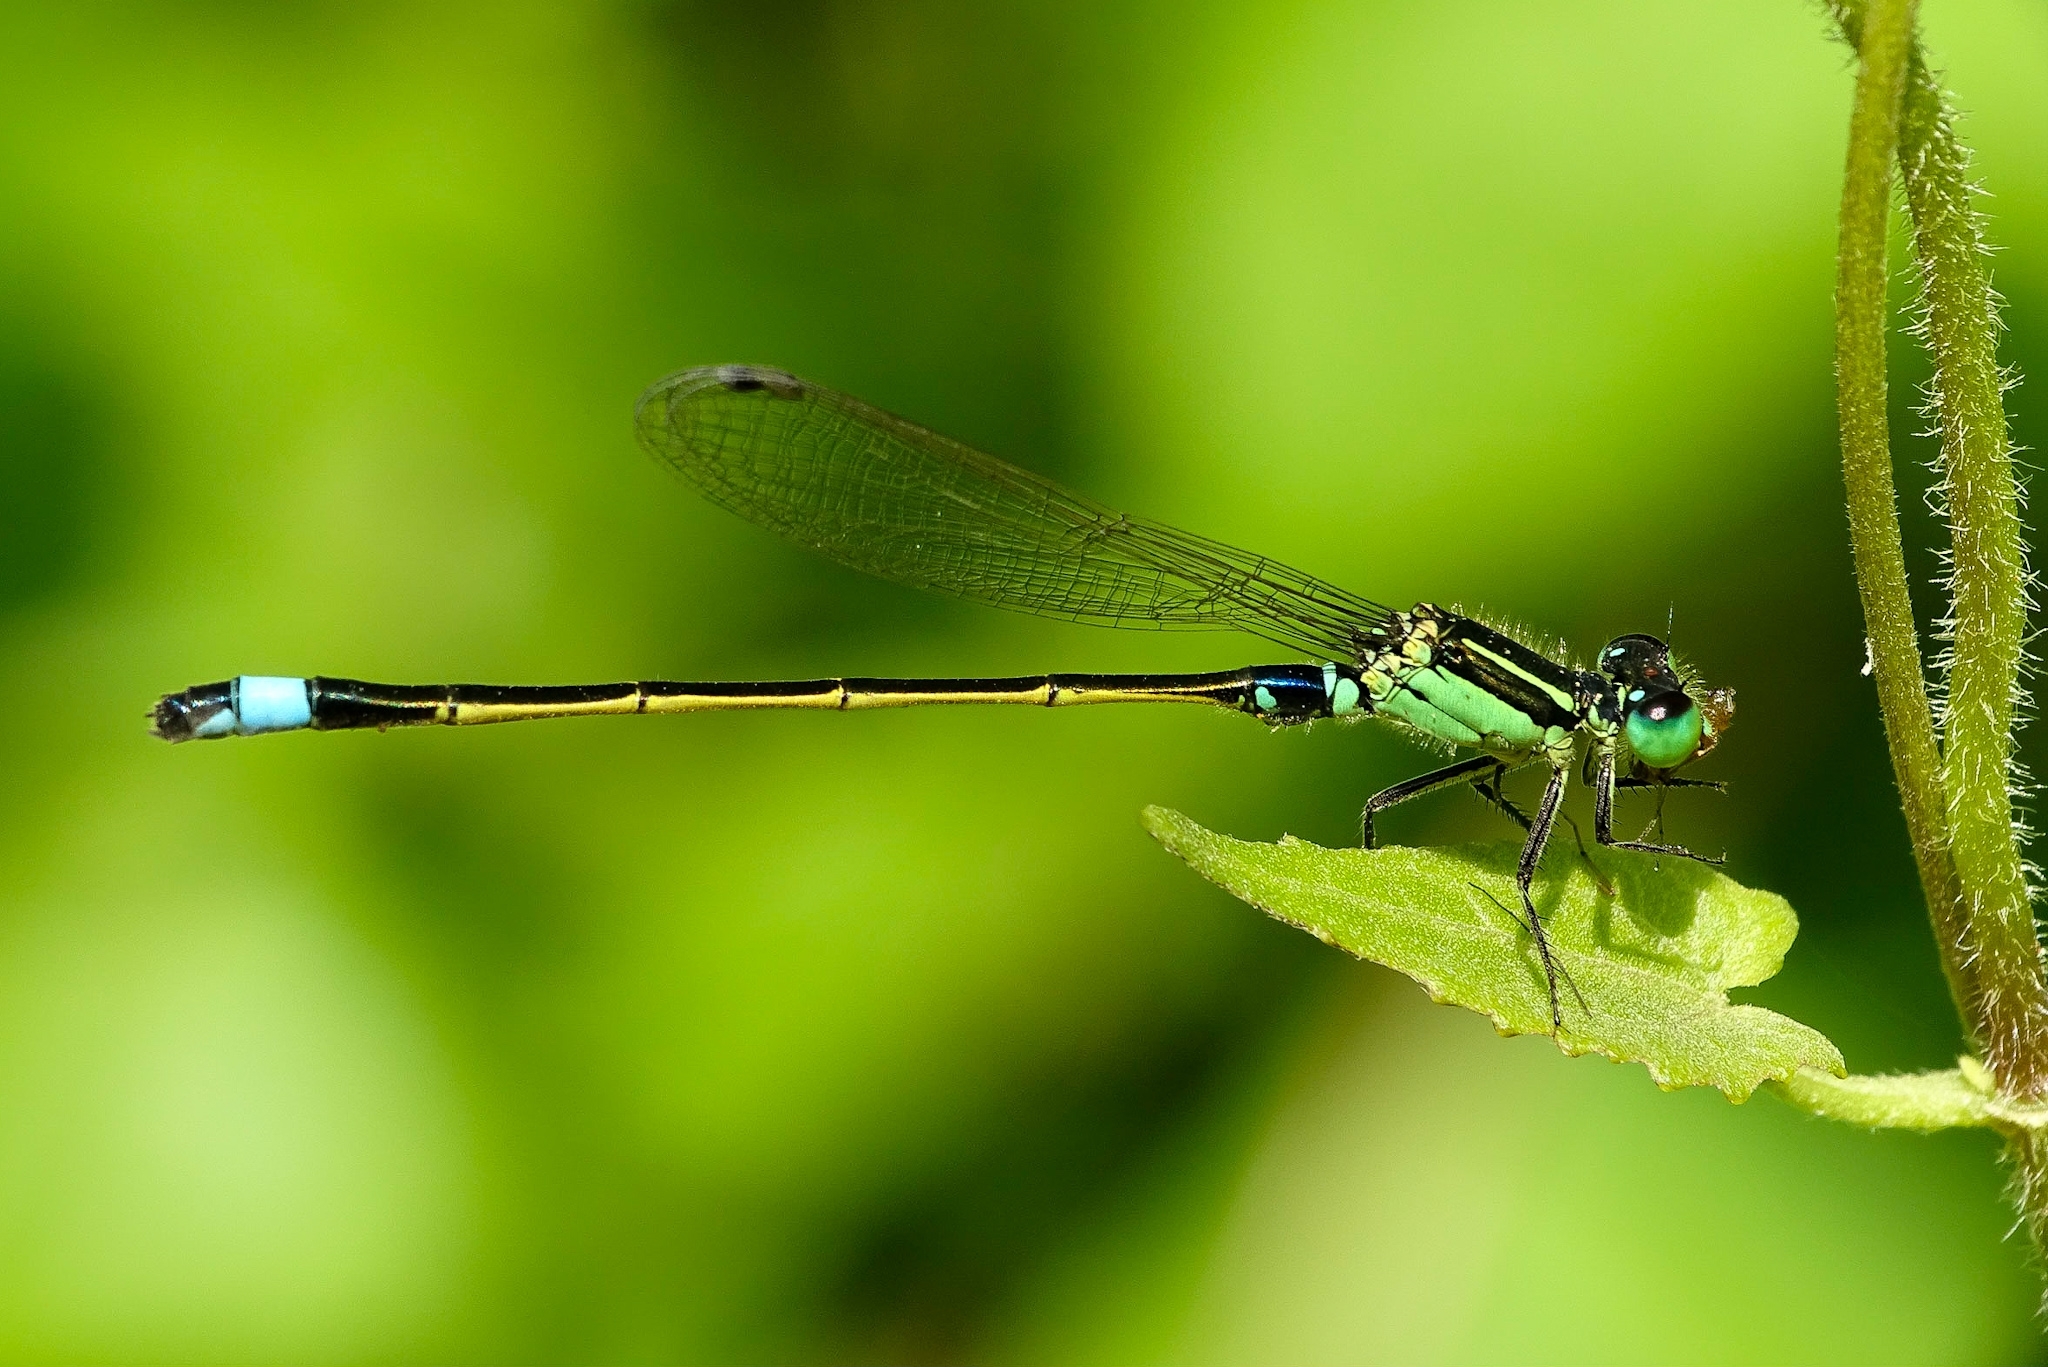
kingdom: Animalia
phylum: Arthropoda
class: Insecta
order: Odonata
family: Coenagrionidae
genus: Ischnura
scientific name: Ischnura senegalensis
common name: Tropical bluetail
